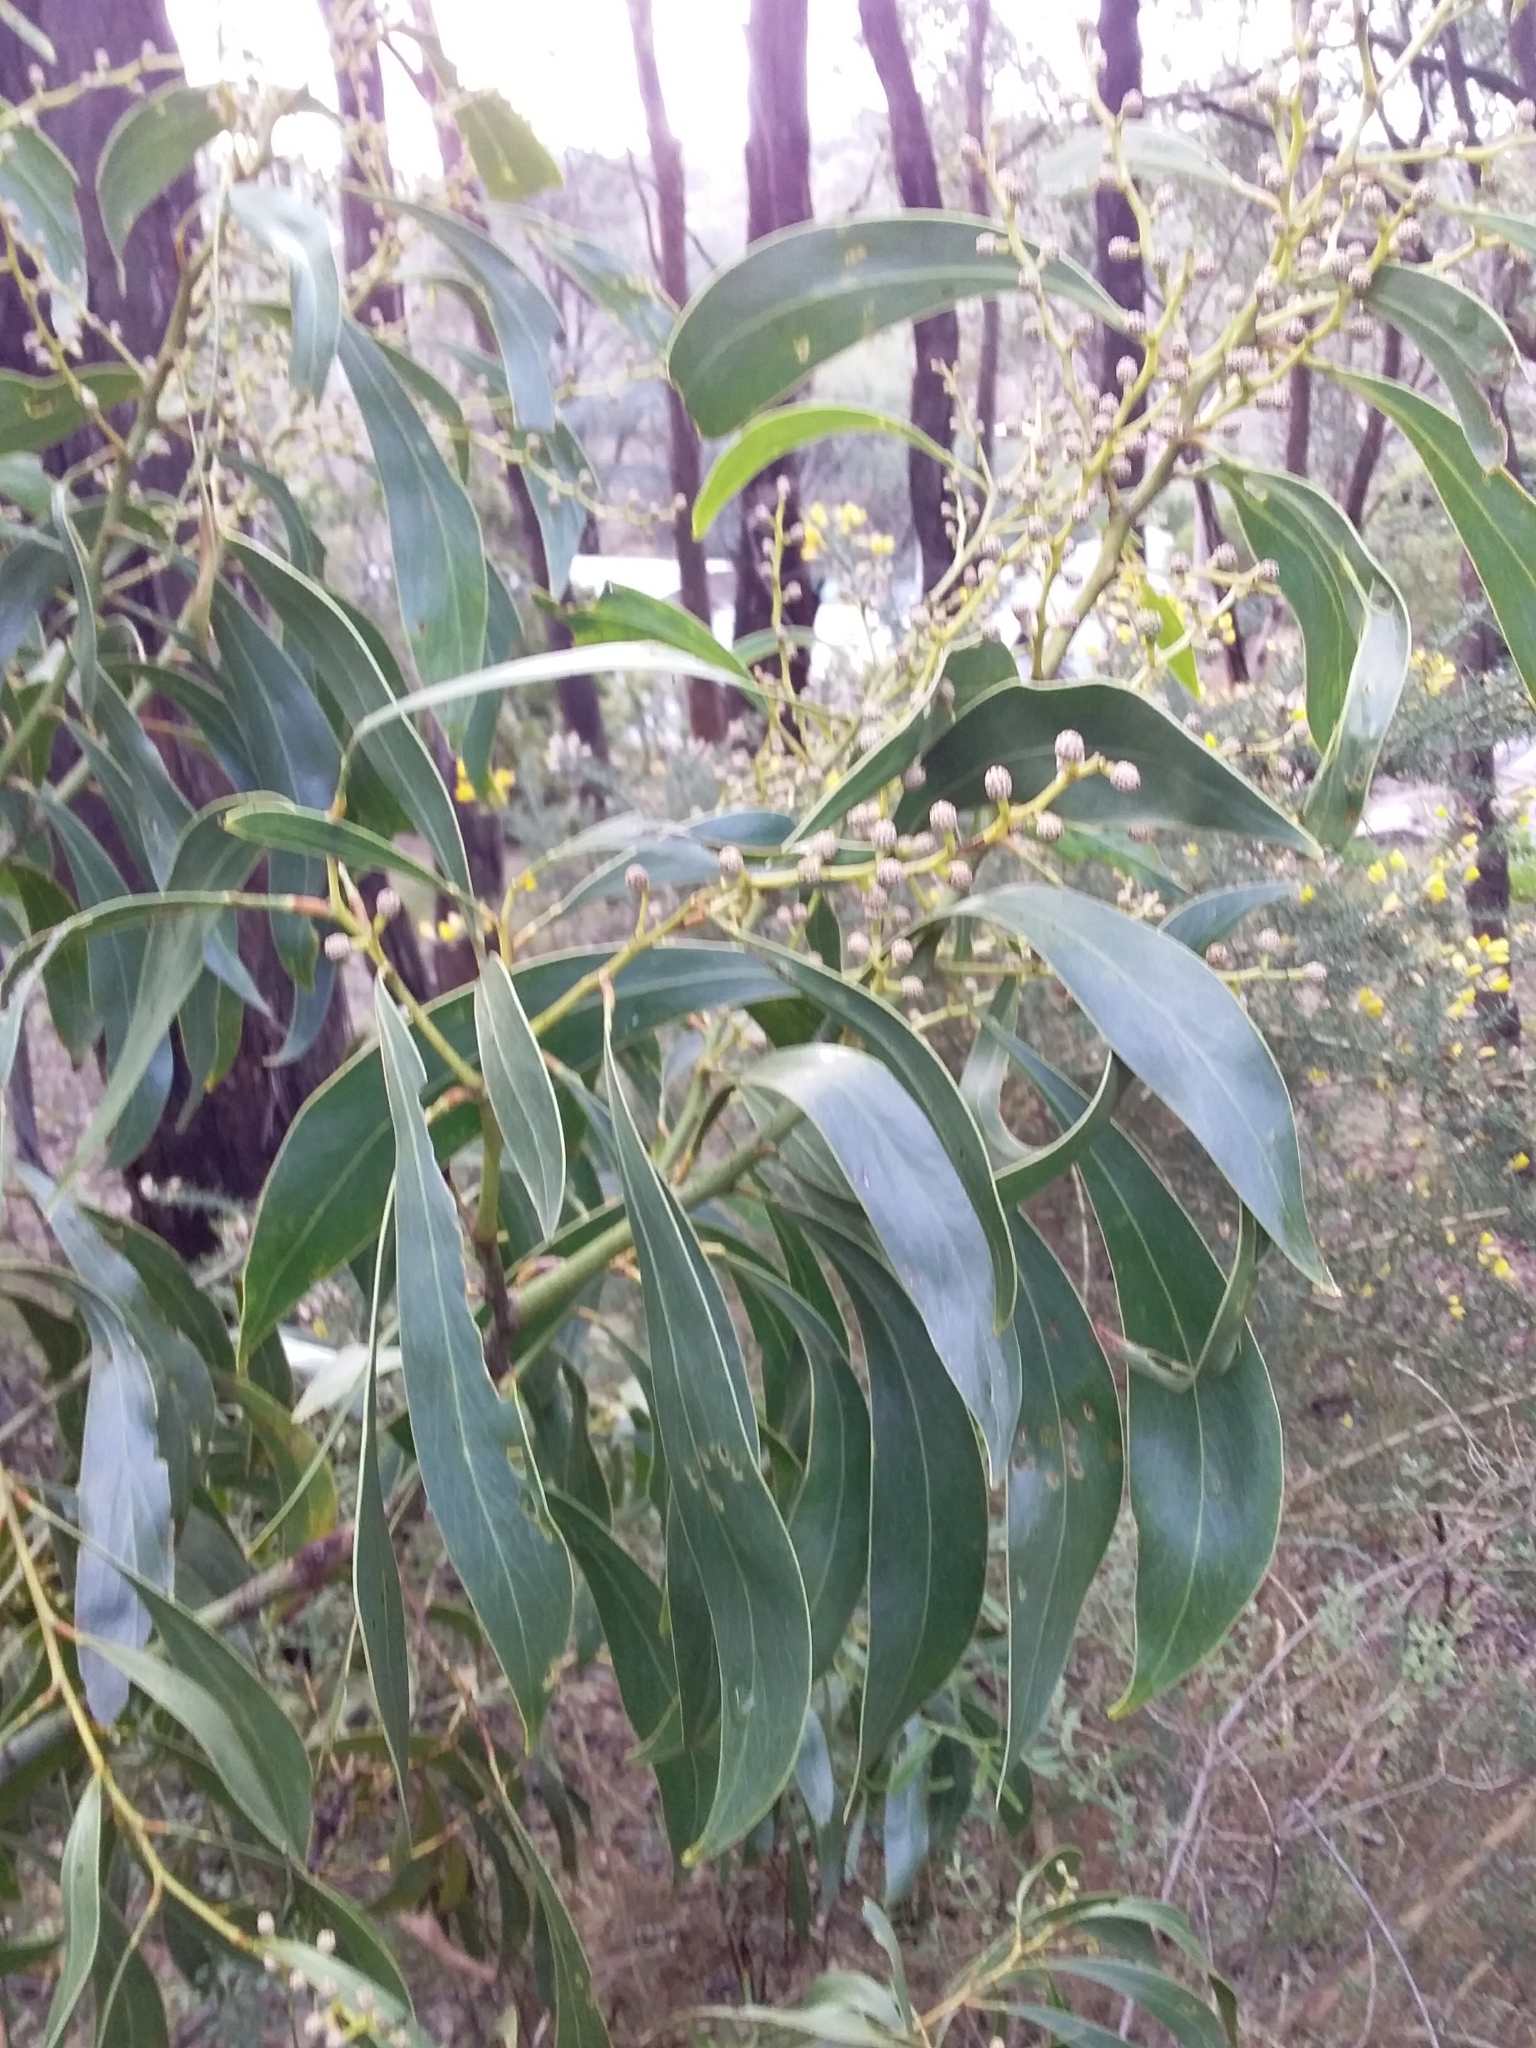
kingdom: Plantae
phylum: Tracheophyta
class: Magnoliopsida
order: Fabales
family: Fabaceae
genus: Acacia
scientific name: Acacia pycnantha
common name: Golden wattle
